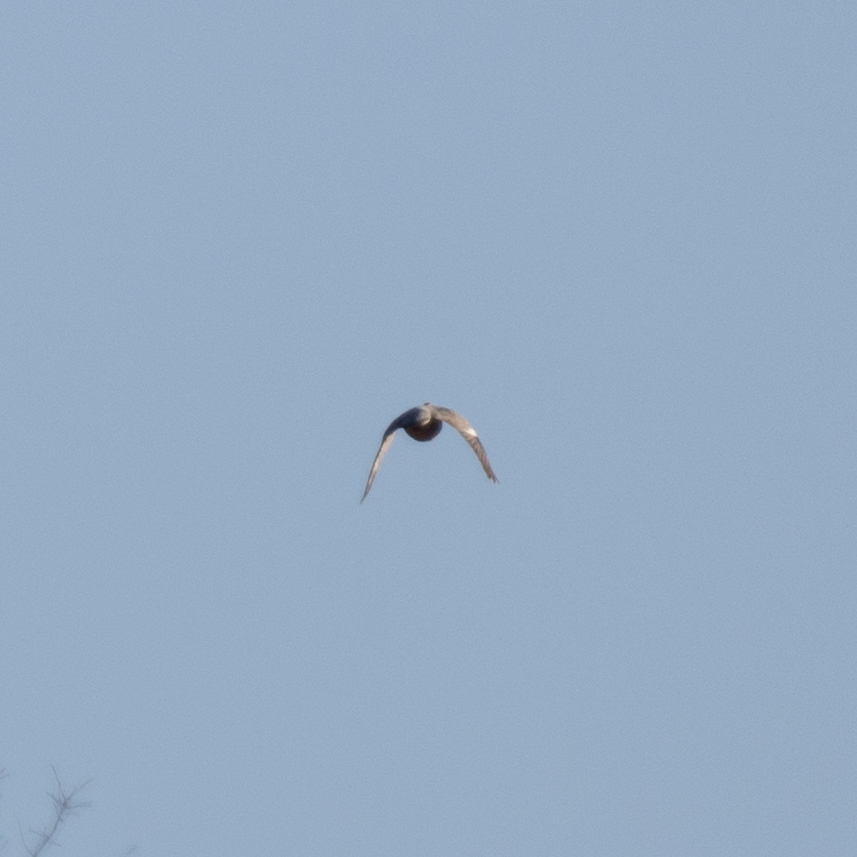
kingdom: Animalia
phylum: Chordata
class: Aves
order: Columbiformes
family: Columbidae
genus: Columba
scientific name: Columba palumbus
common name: Common wood pigeon
